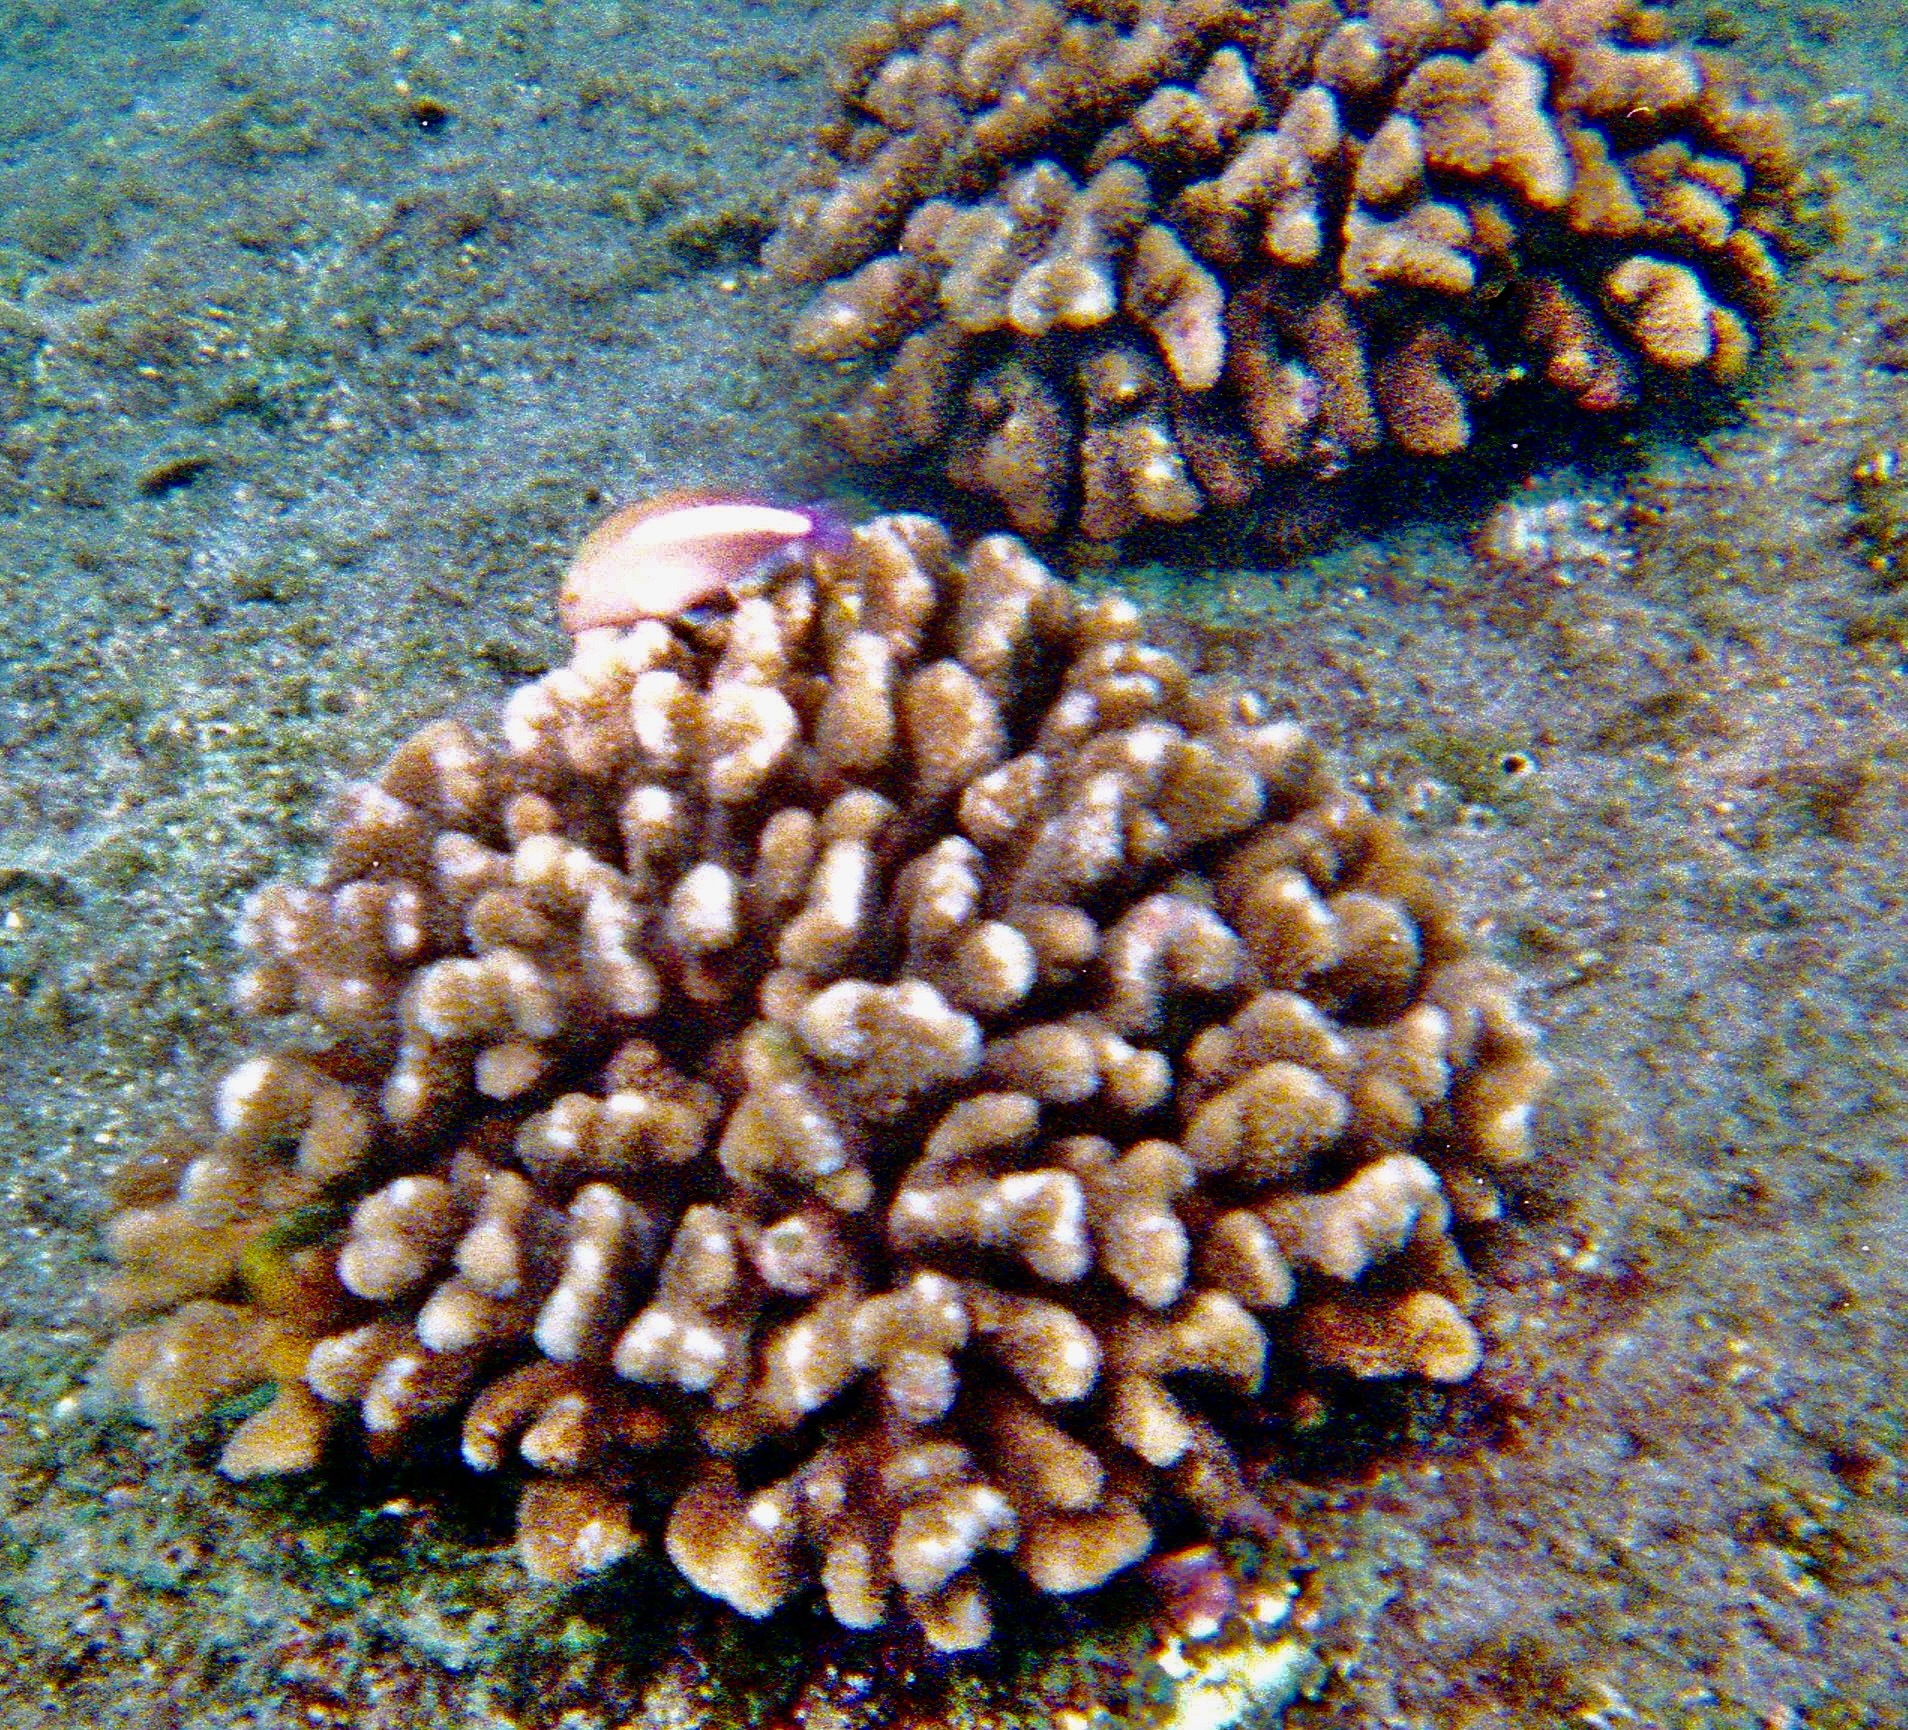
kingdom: Animalia
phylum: Cnidaria
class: Anthozoa
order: Scleractinia
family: Pocilloporidae
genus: Pocillopora
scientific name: Pocillopora meandrina
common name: Cauliflower coral
